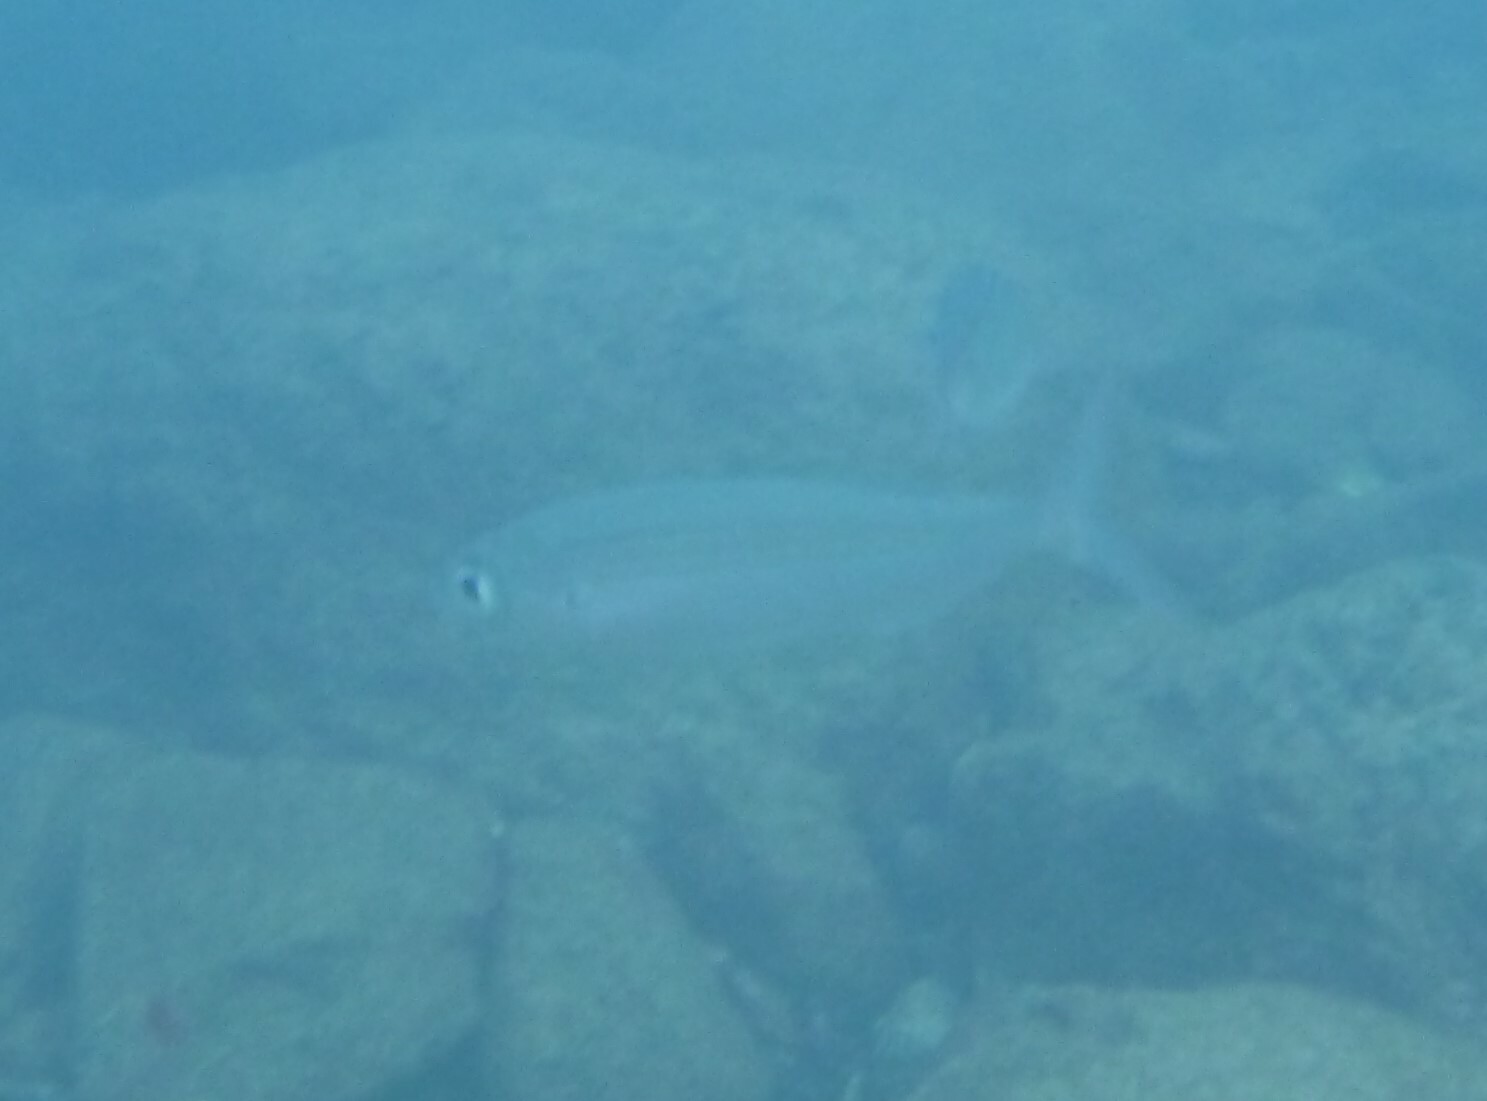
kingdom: Animalia
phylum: Chordata
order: Perciformes
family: Sparidae
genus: Boops
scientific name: Boops boops
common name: Bogue
